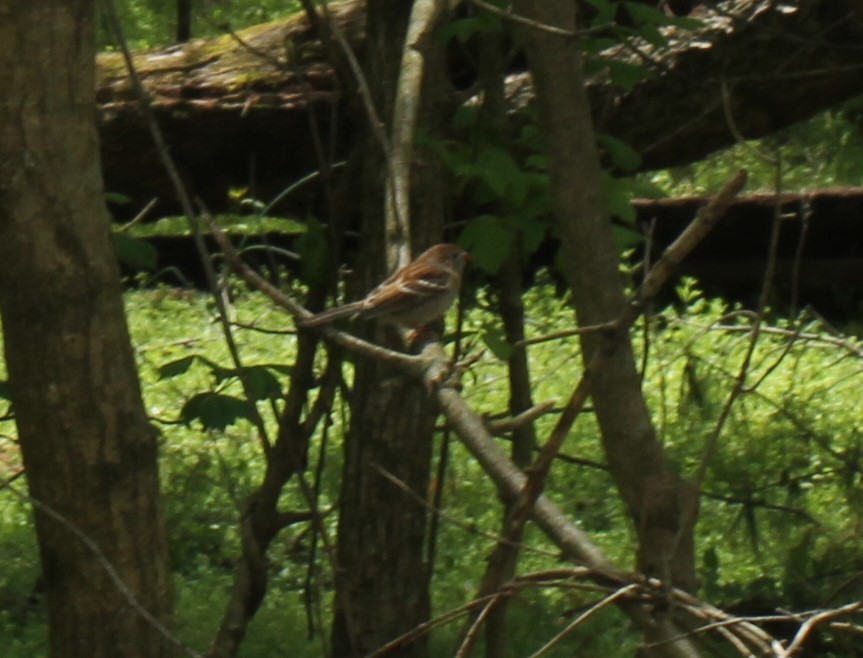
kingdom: Animalia
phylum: Chordata
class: Aves
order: Passeriformes
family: Passerellidae
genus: Spizella
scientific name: Spizella pusilla
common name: Field sparrow
